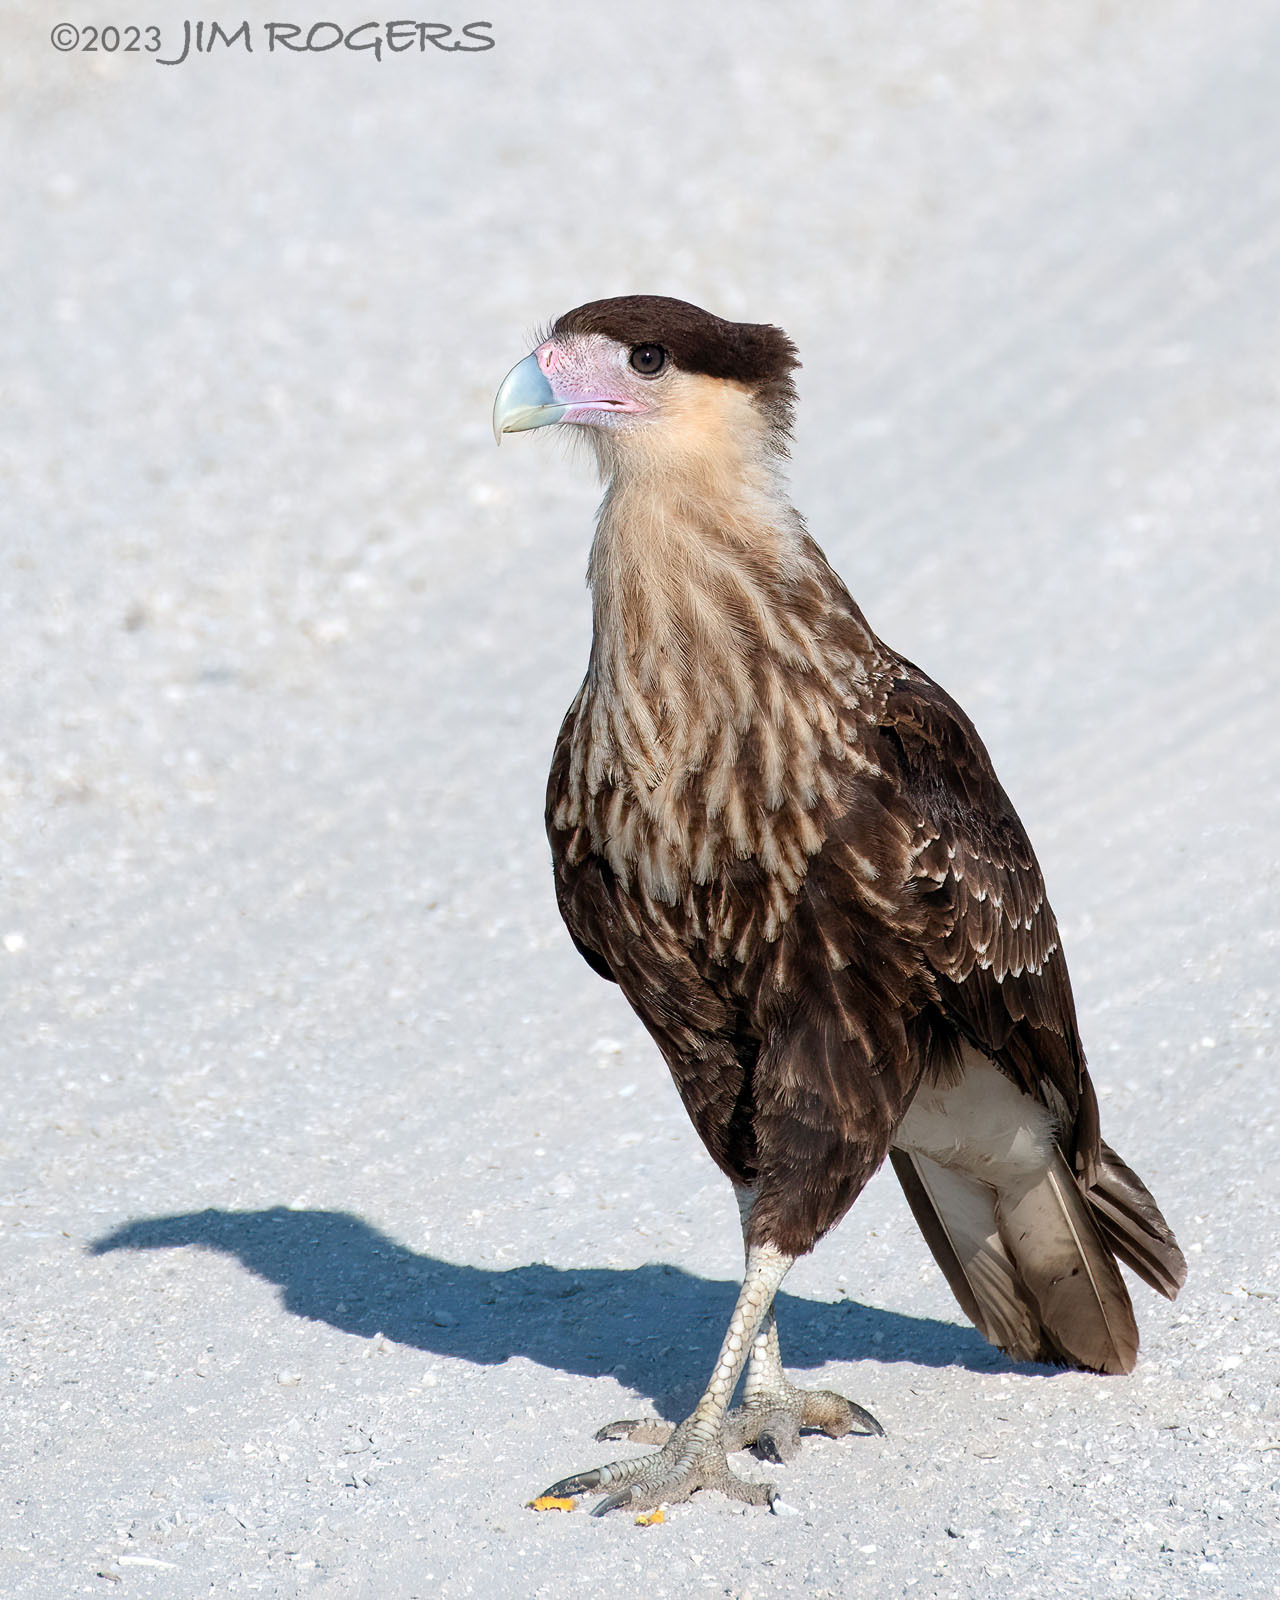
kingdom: Animalia
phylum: Chordata
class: Aves
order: Falconiformes
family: Falconidae
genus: Caracara
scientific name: Caracara plancus
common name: Southern caracara
